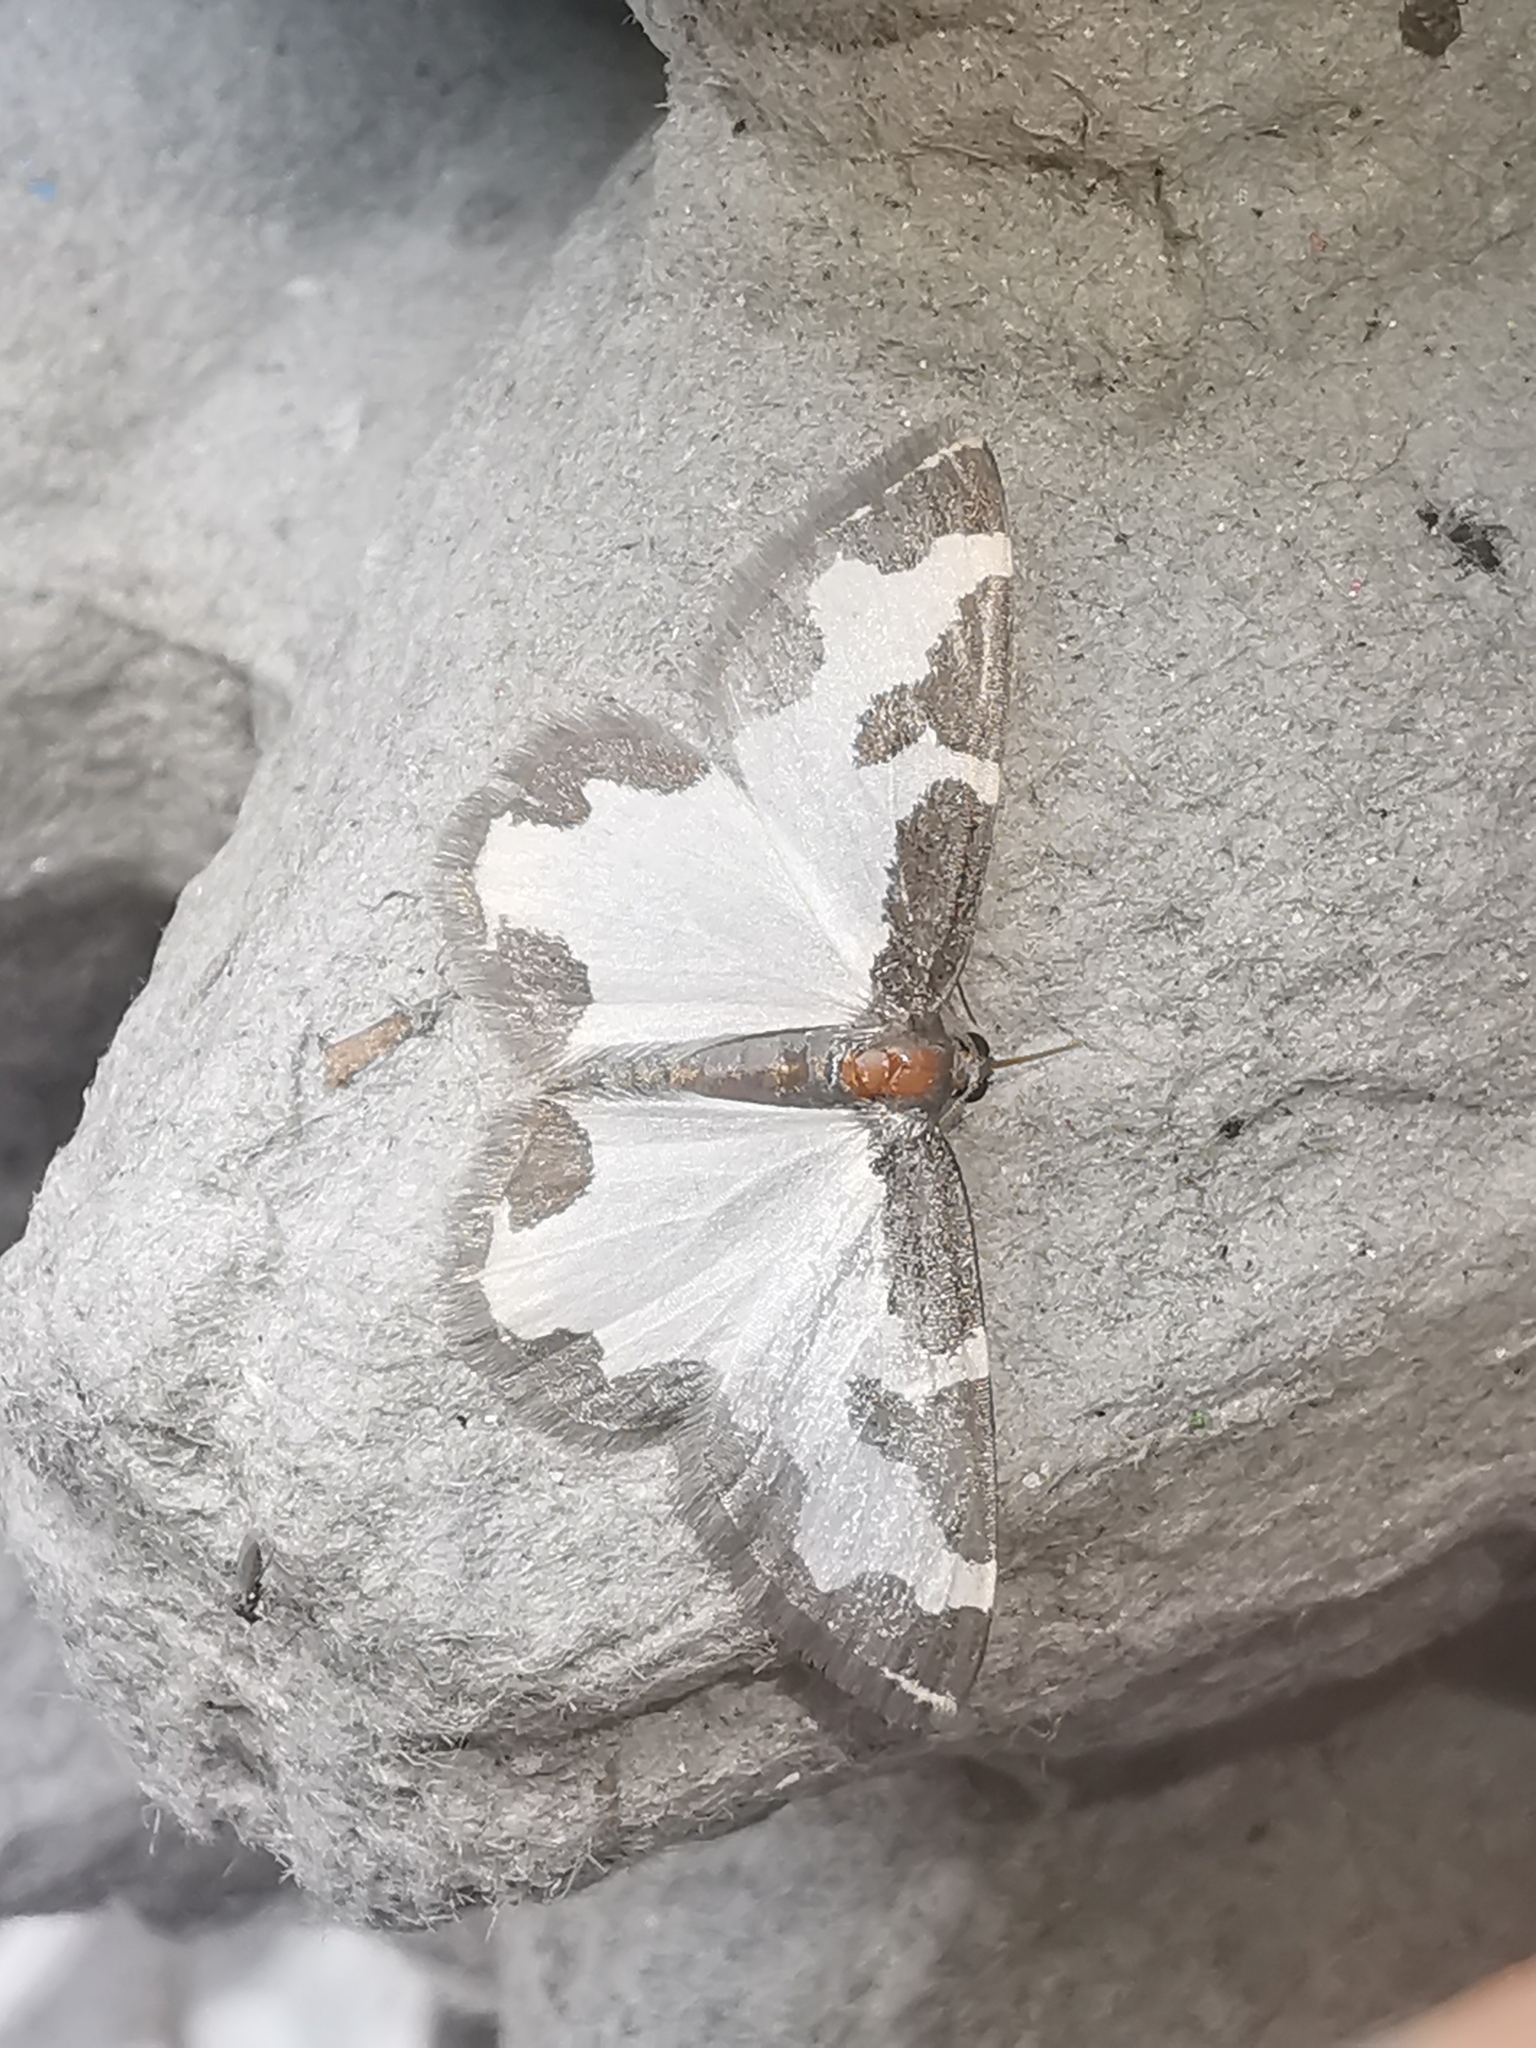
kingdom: Animalia
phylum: Arthropoda
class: Insecta
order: Lepidoptera
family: Geometridae
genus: Lomaspilis
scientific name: Lomaspilis marginata
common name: Clouded border
